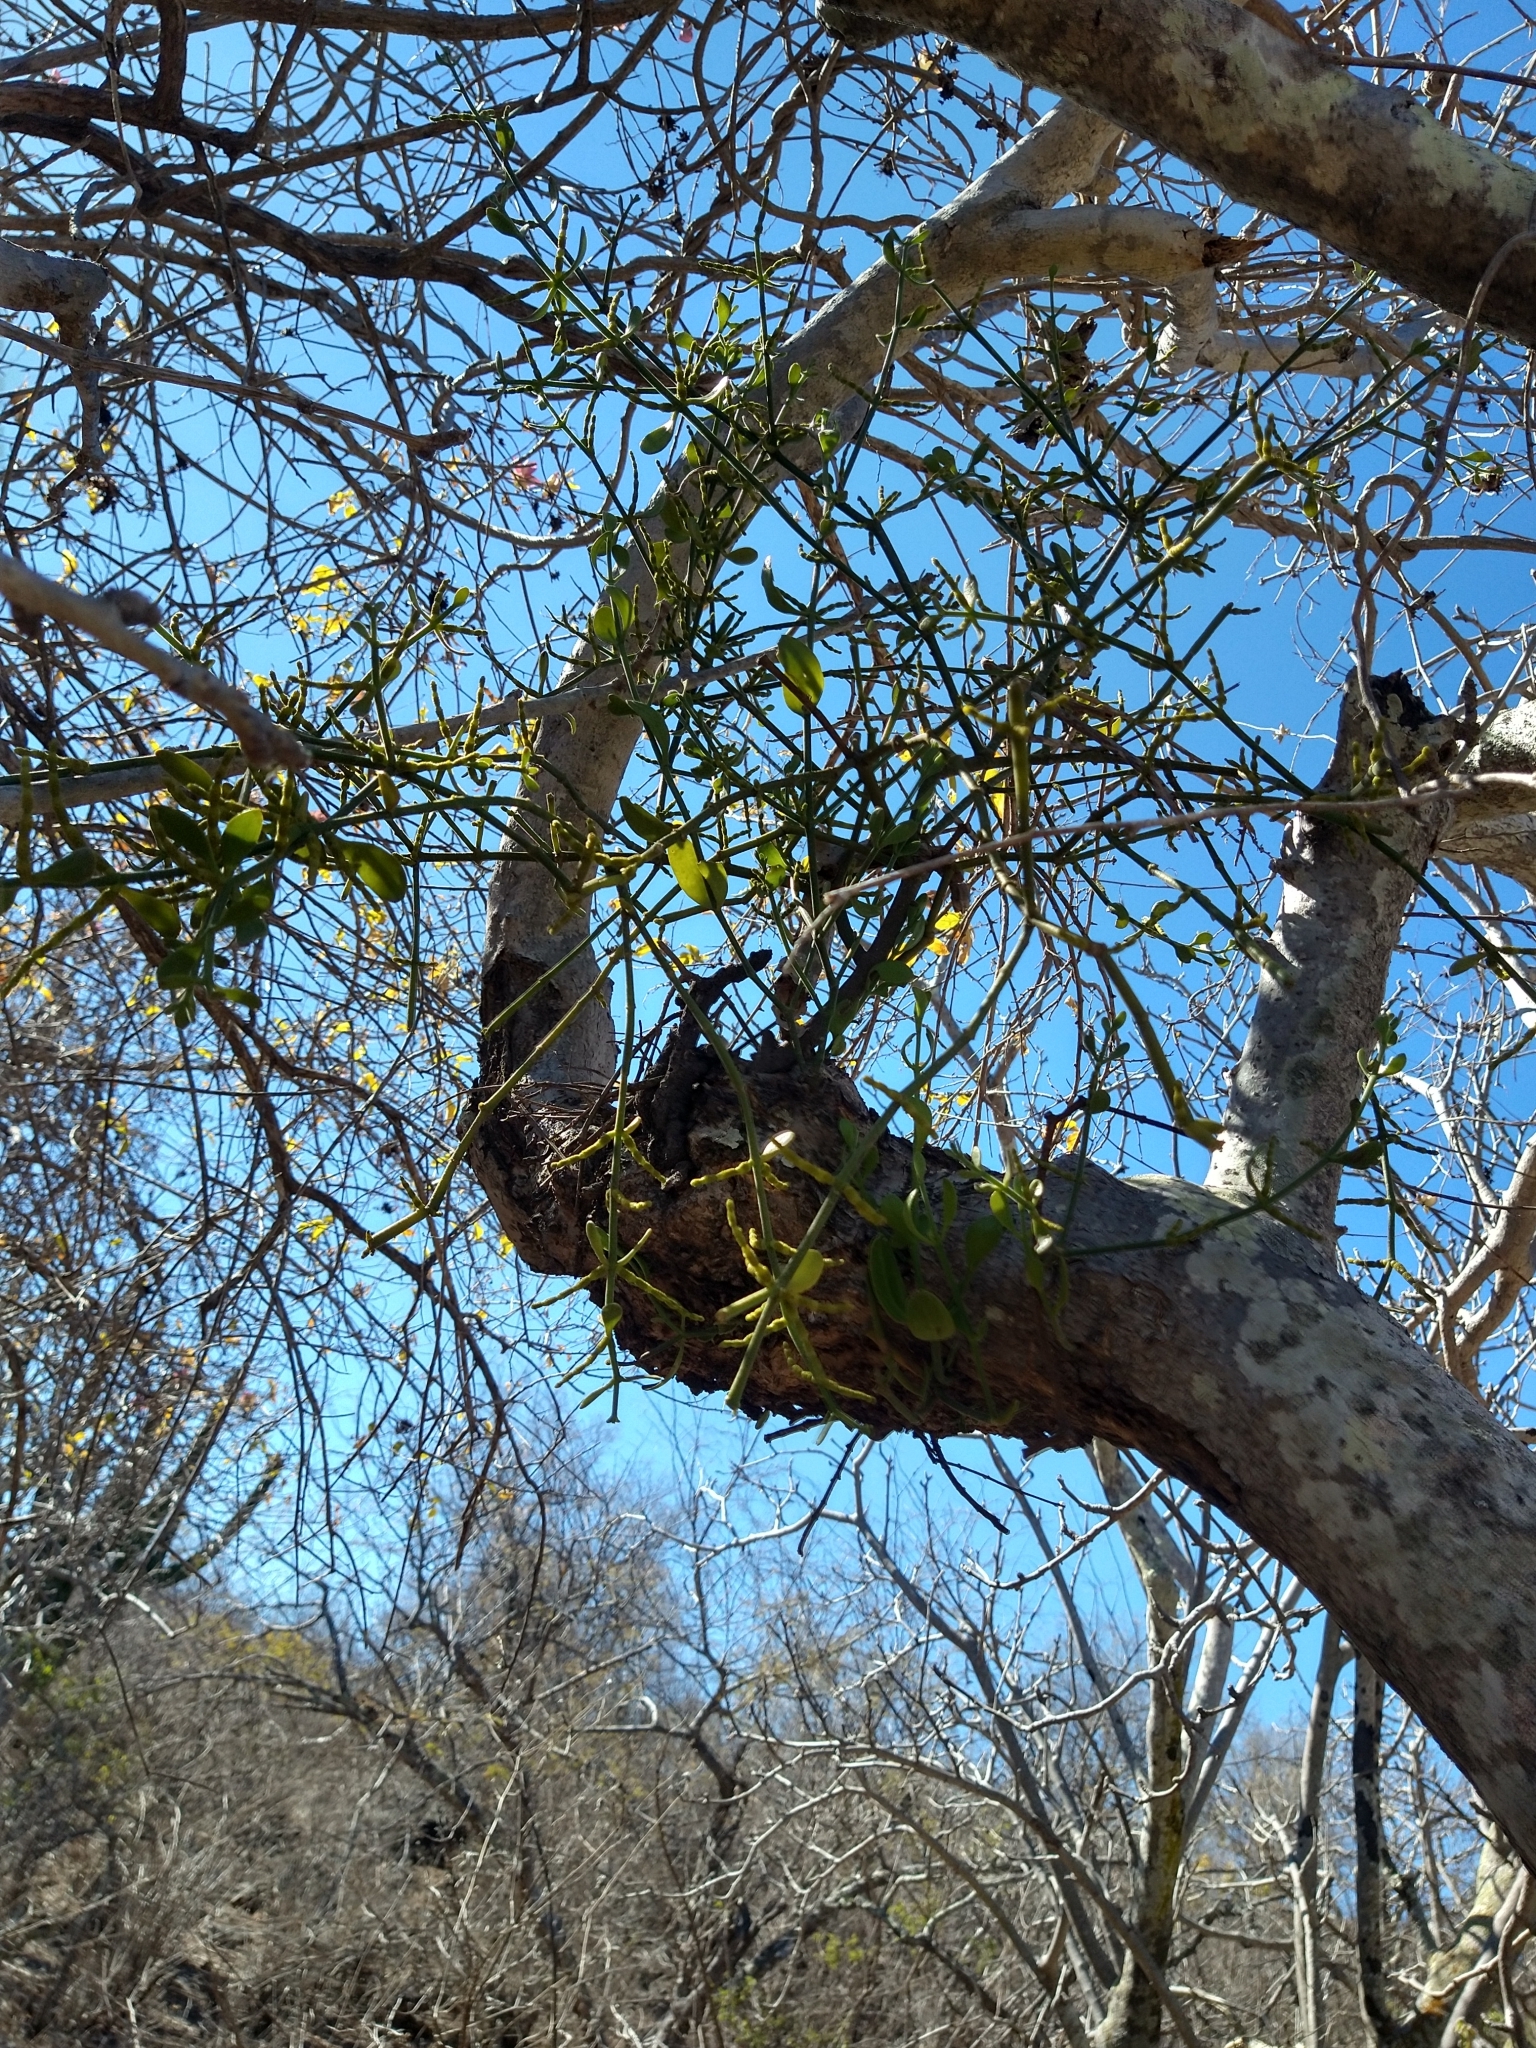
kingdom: Plantae
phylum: Tracheophyta
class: Magnoliopsida
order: Santalales
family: Viscaceae
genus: Phoradendron
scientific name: Phoradendron brachystachyum
